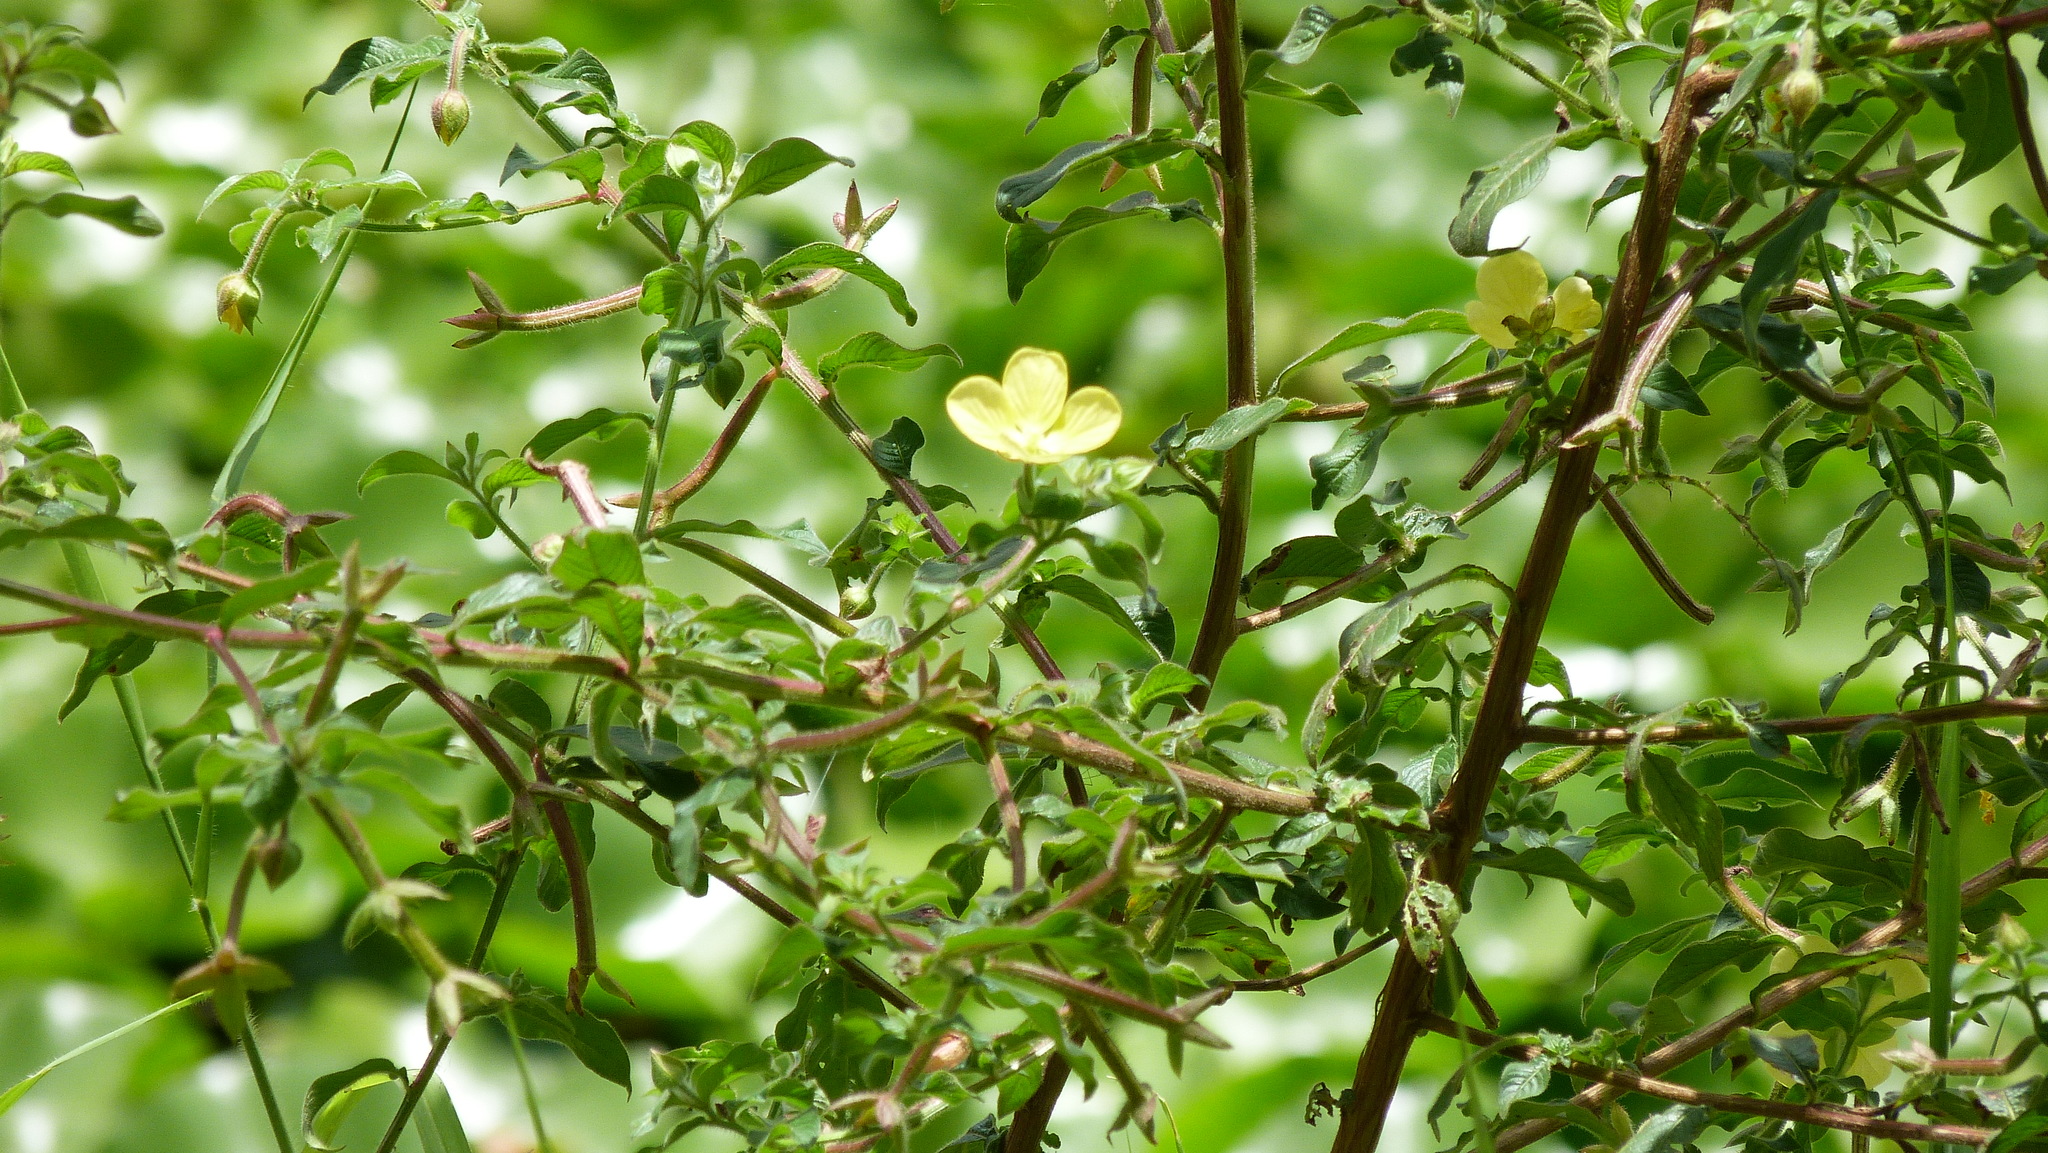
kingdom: Plantae
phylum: Tracheophyta
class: Magnoliopsida
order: Myrtales
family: Onagraceae
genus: Ludwigia
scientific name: Ludwigia octovalvis
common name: Water-primrose
